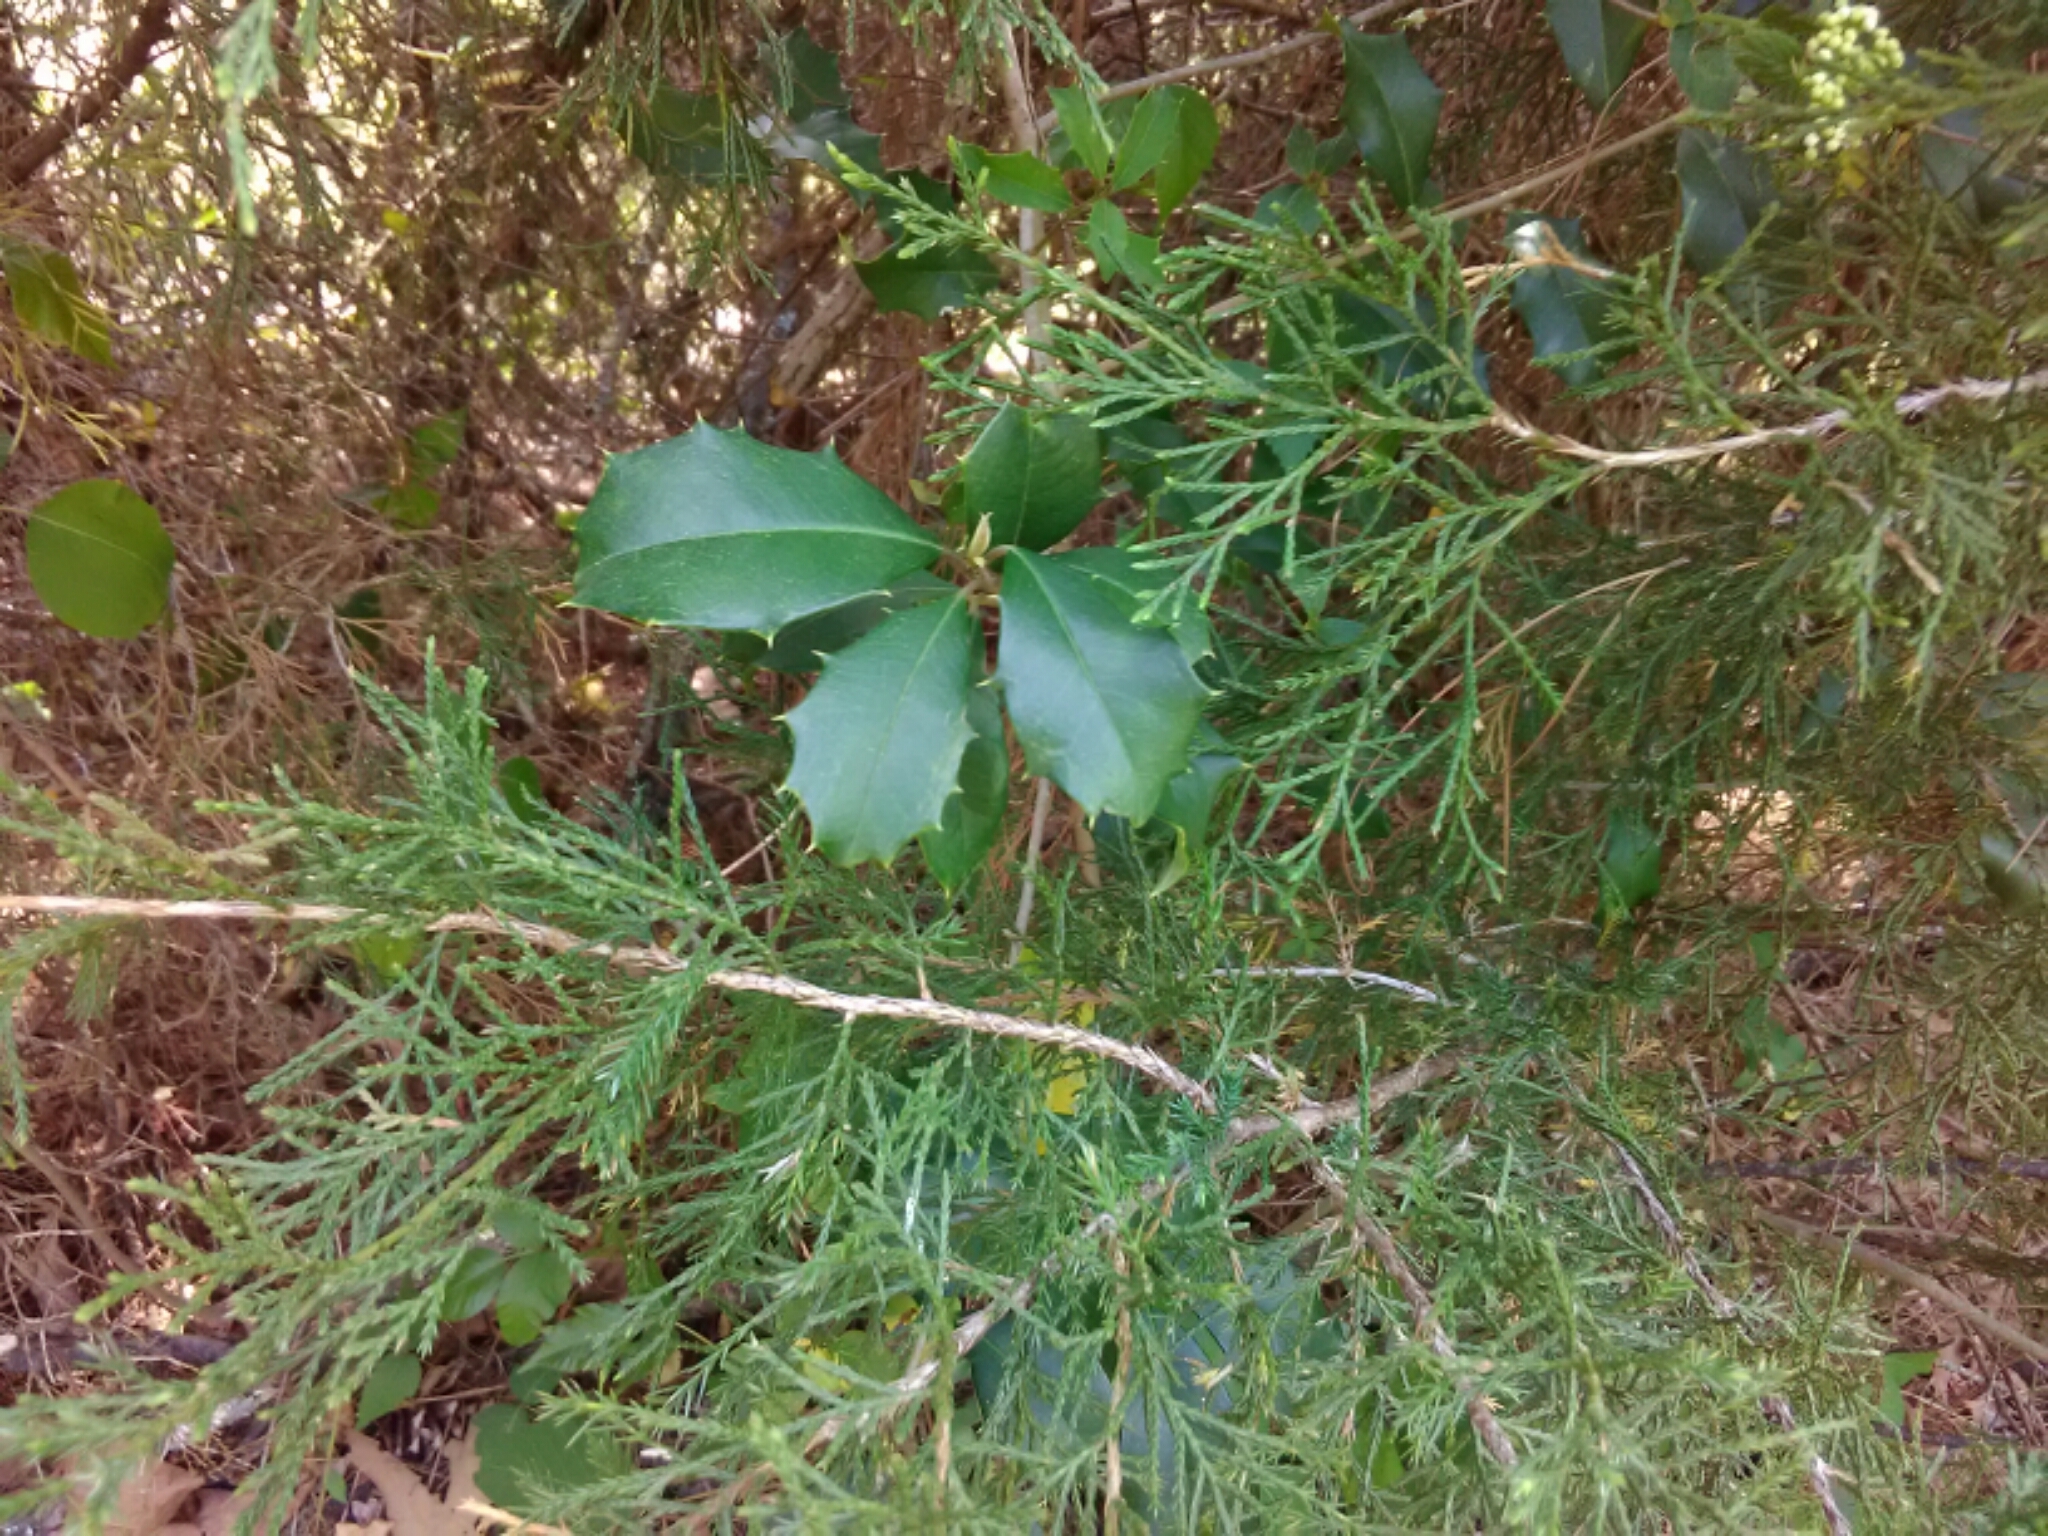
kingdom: Plantae
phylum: Tracheophyta
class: Magnoliopsida
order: Aquifoliales
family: Aquifoliaceae
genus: Ilex
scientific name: Ilex opaca
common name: American holly
